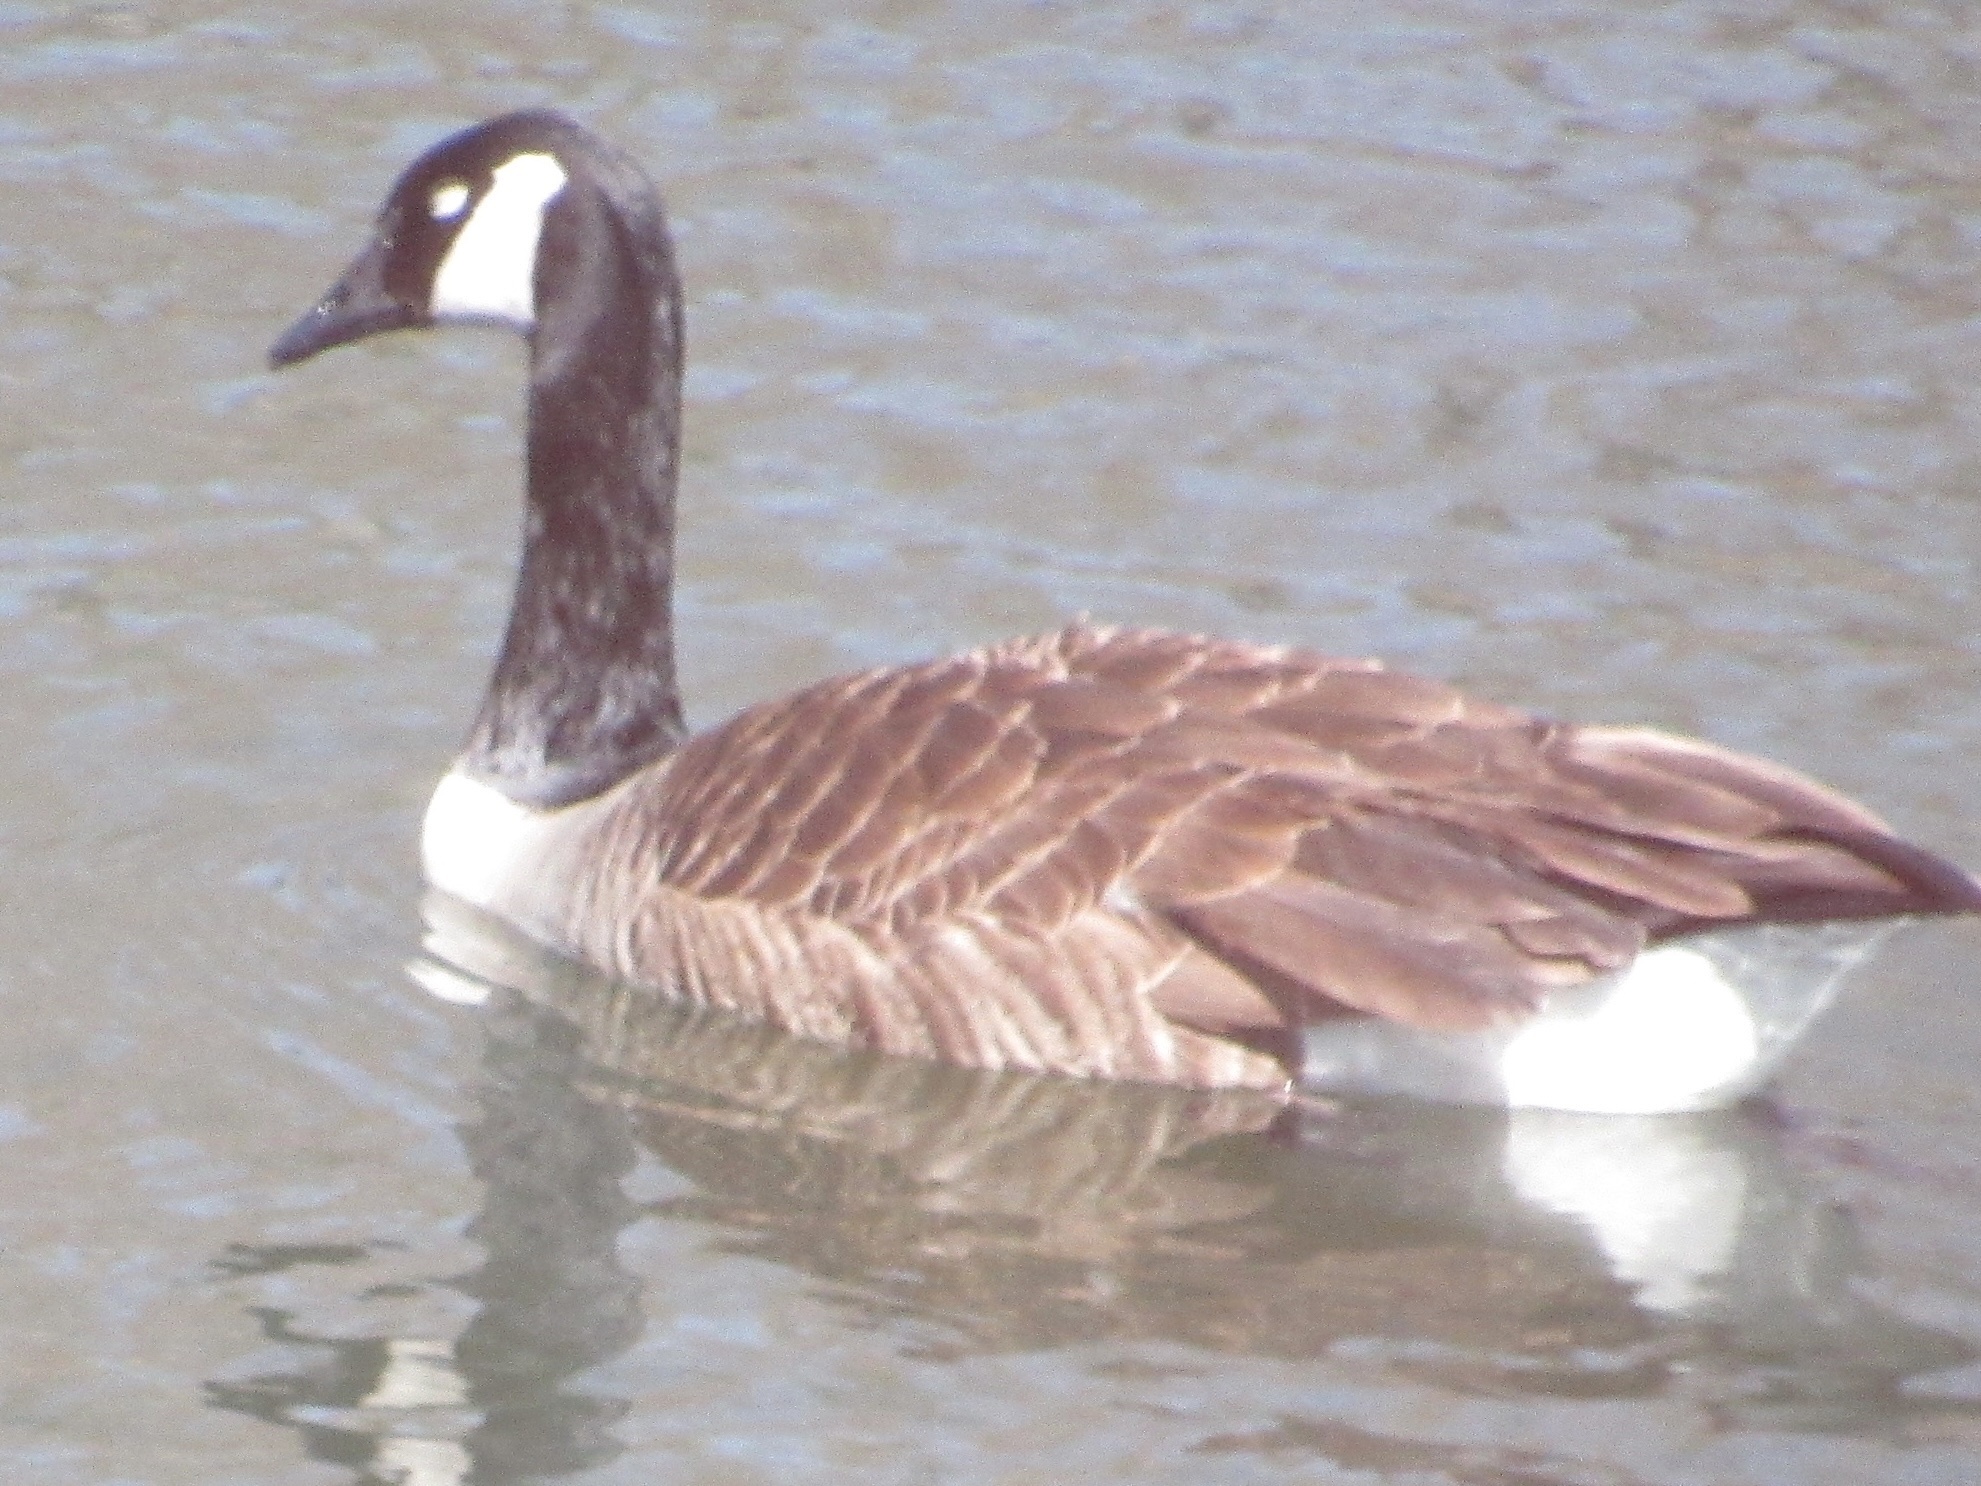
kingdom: Animalia
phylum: Chordata
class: Aves
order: Anseriformes
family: Anatidae
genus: Branta
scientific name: Branta canadensis
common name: Canada goose
